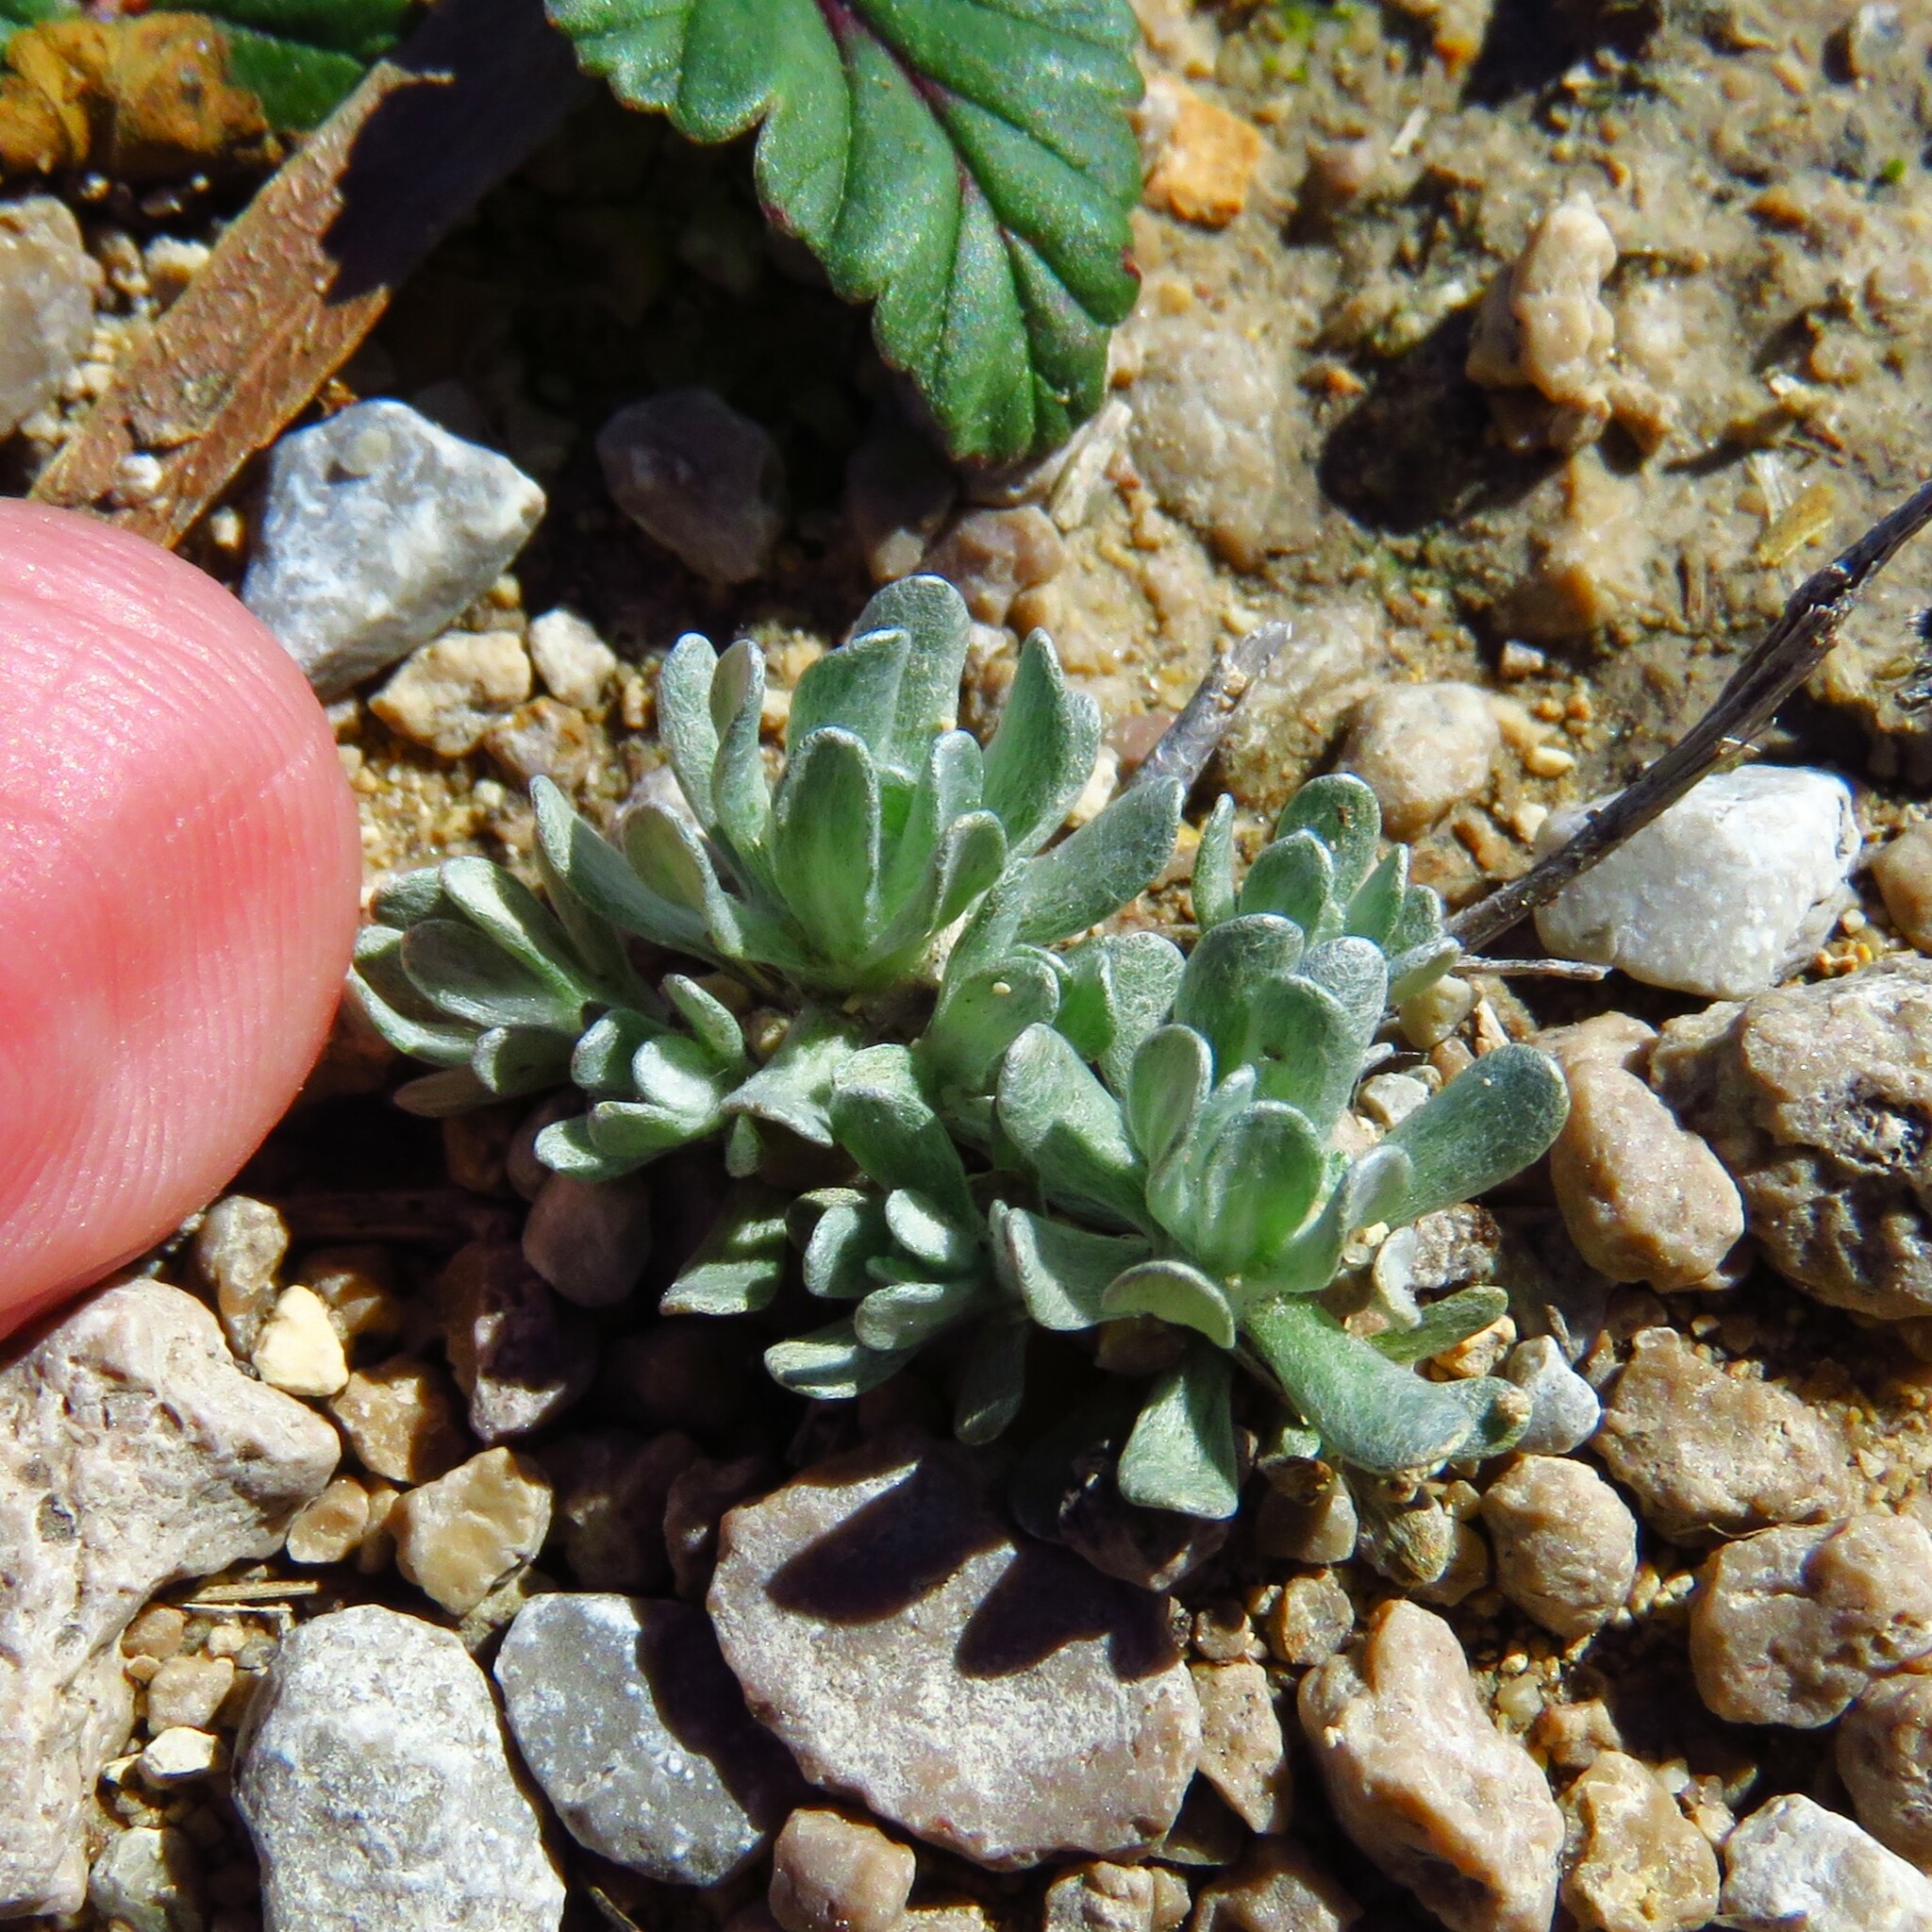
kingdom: Plantae
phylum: Tracheophyta
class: Magnoliopsida
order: Asterales
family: Asteraceae
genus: Diaperia
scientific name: Diaperia prolifera
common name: Big-head rabbit-tobacco
